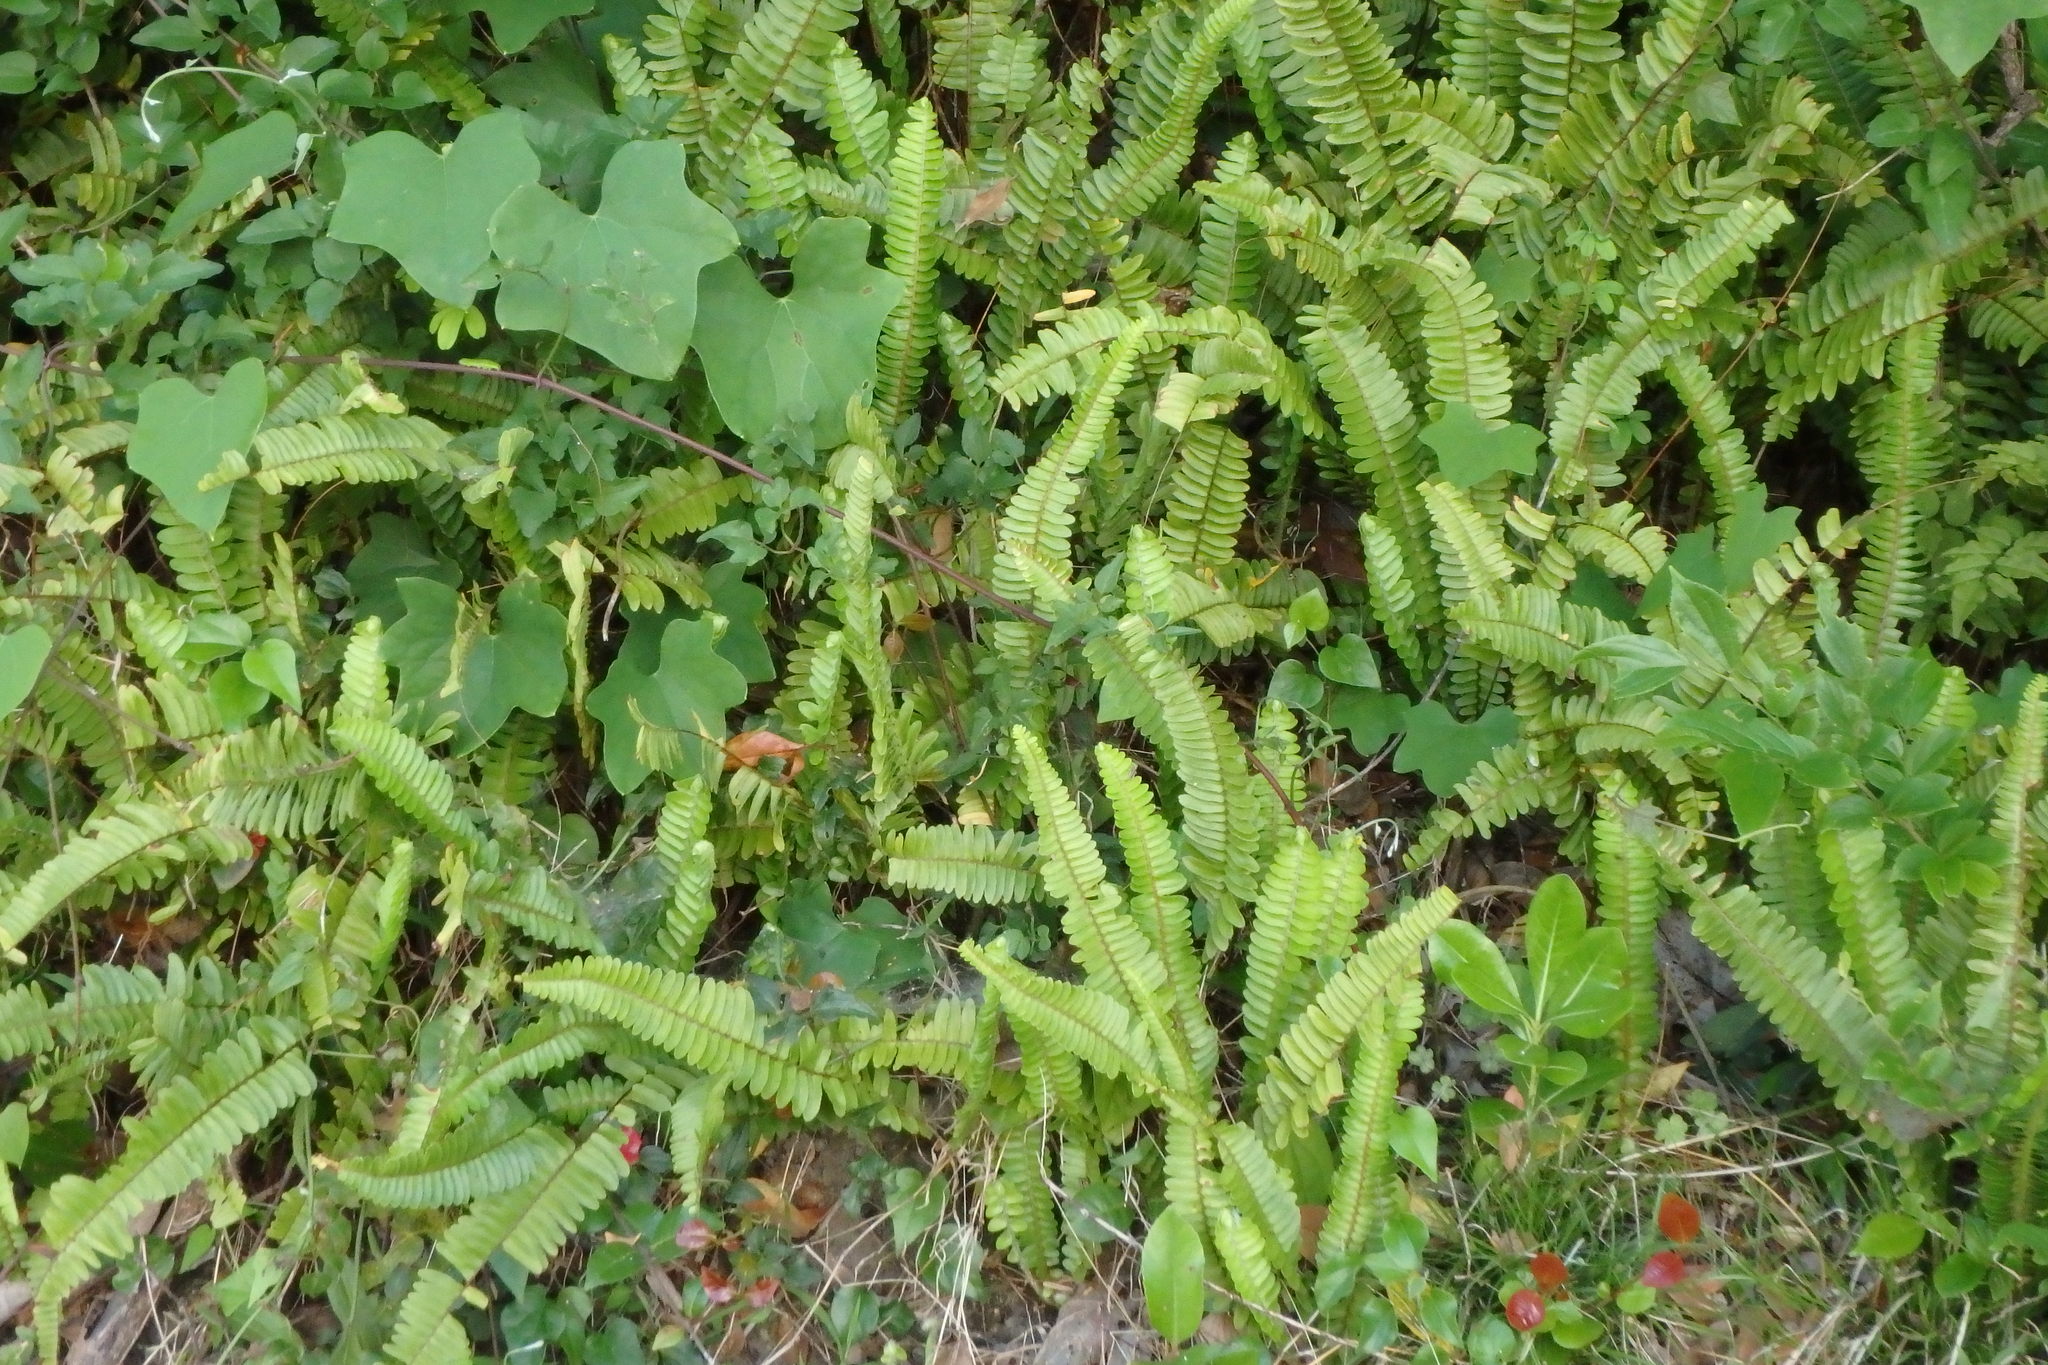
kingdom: Plantae
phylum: Tracheophyta
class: Polypodiopsida
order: Polypodiales
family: Nephrolepidaceae
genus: Nephrolepis
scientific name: Nephrolepis cordifolia
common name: Narrow swordfern
